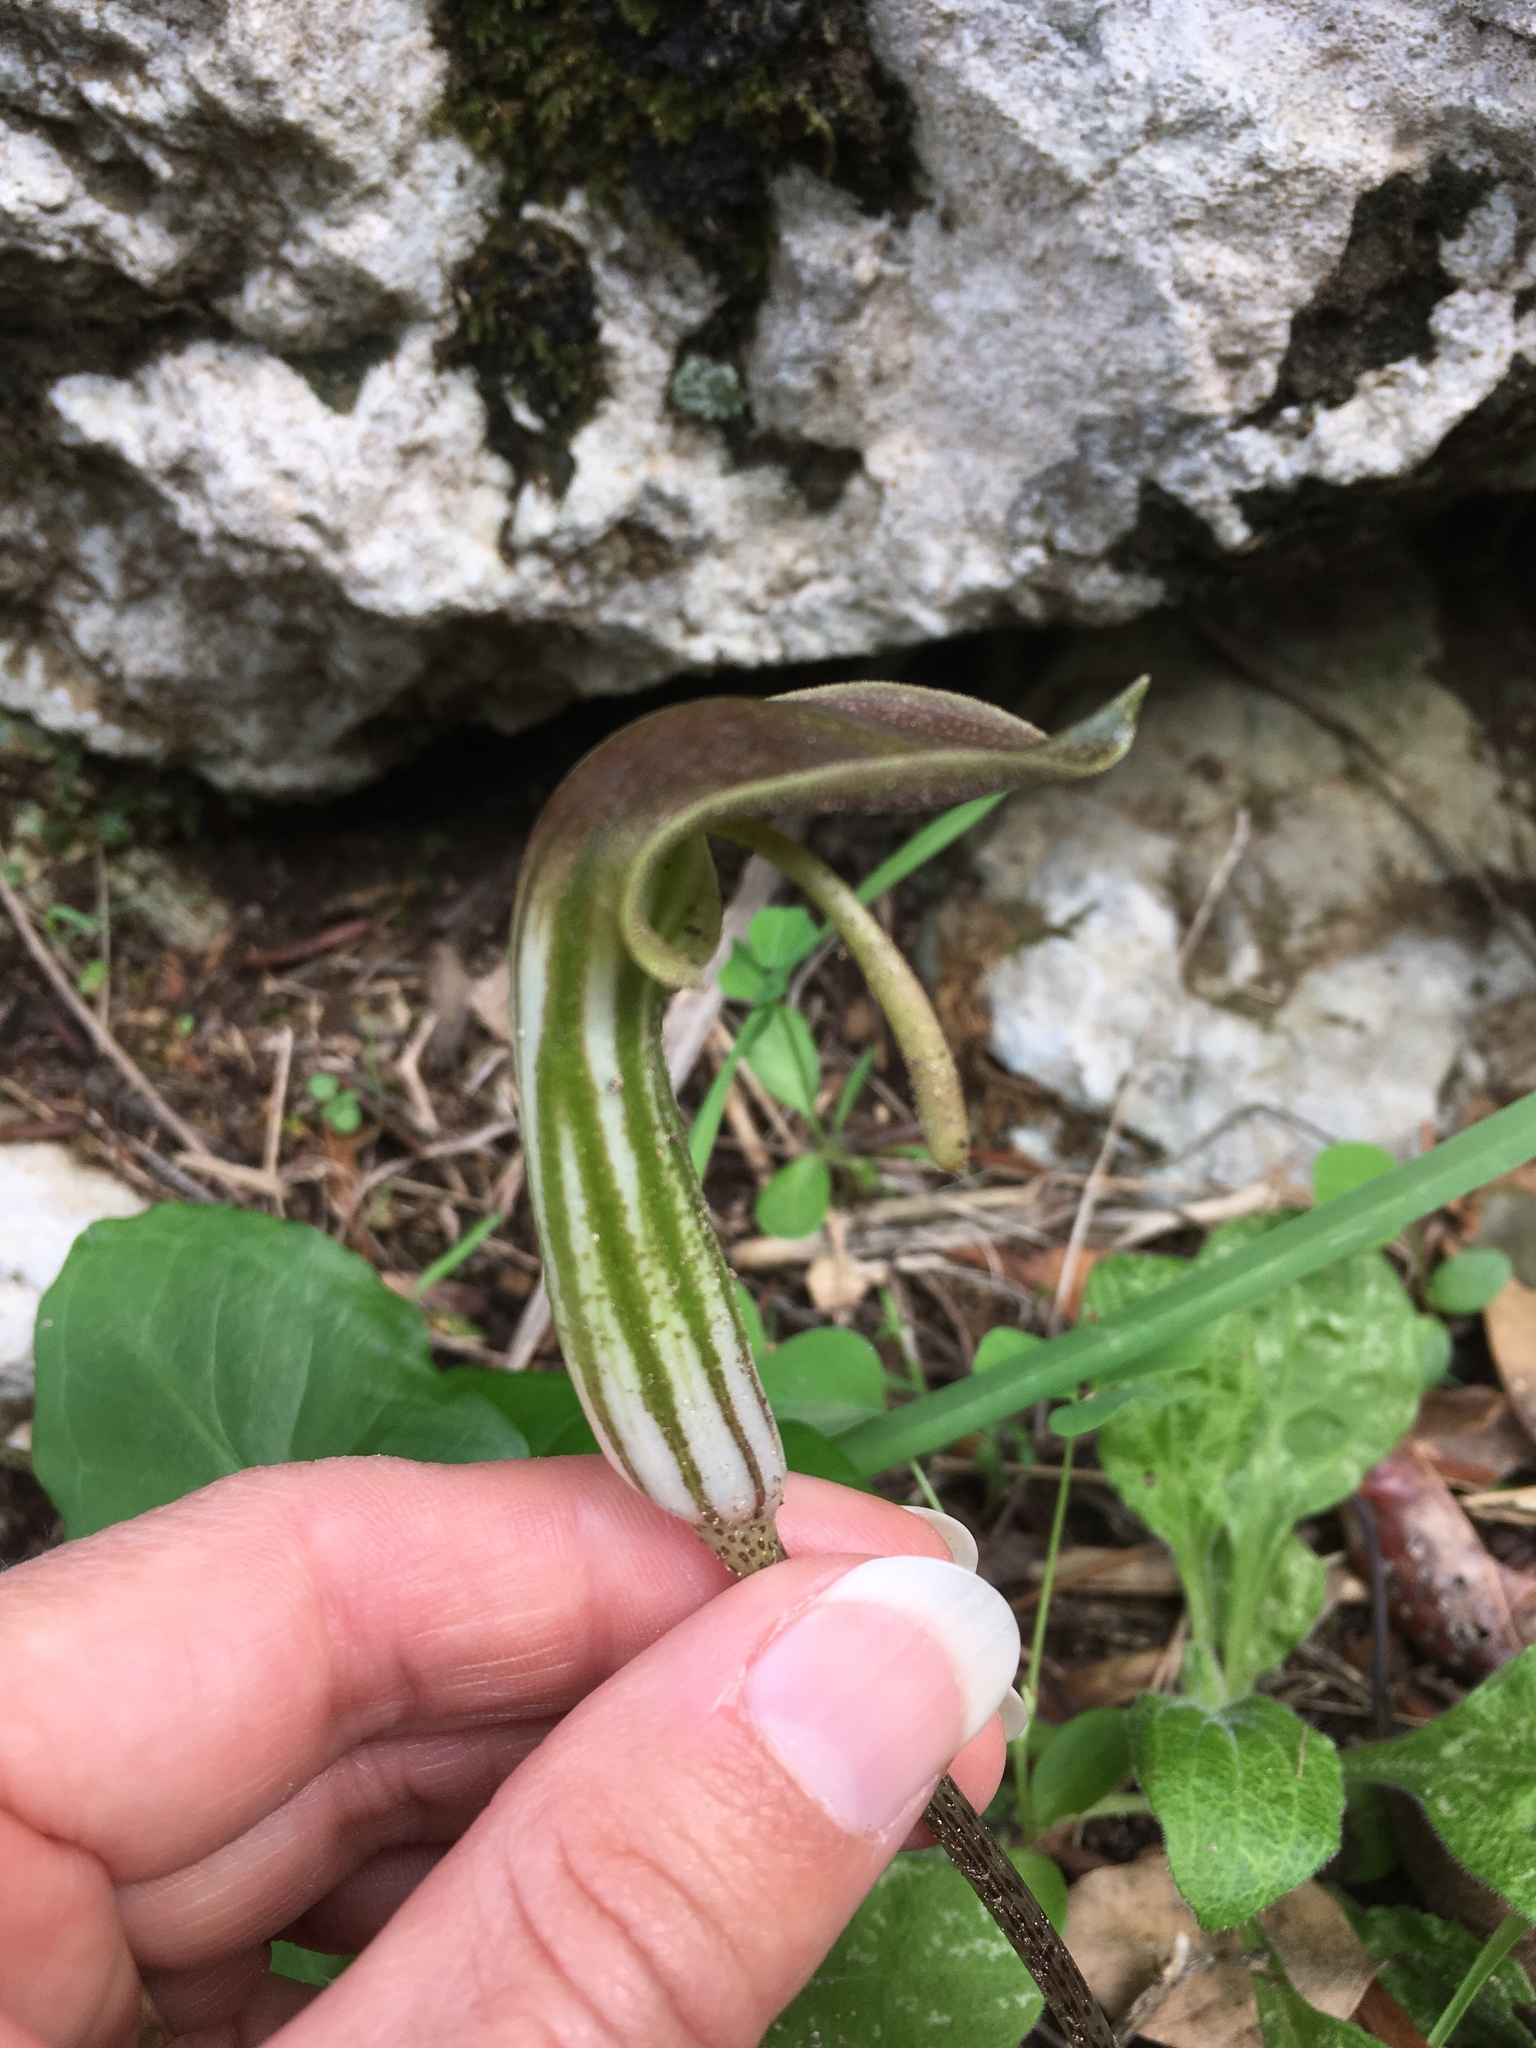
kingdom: Plantae
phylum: Tracheophyta
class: Liliopsida
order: Alismatales
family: Araceae
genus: Arisarum
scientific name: Arisarum vulgare
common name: Common arisarum
